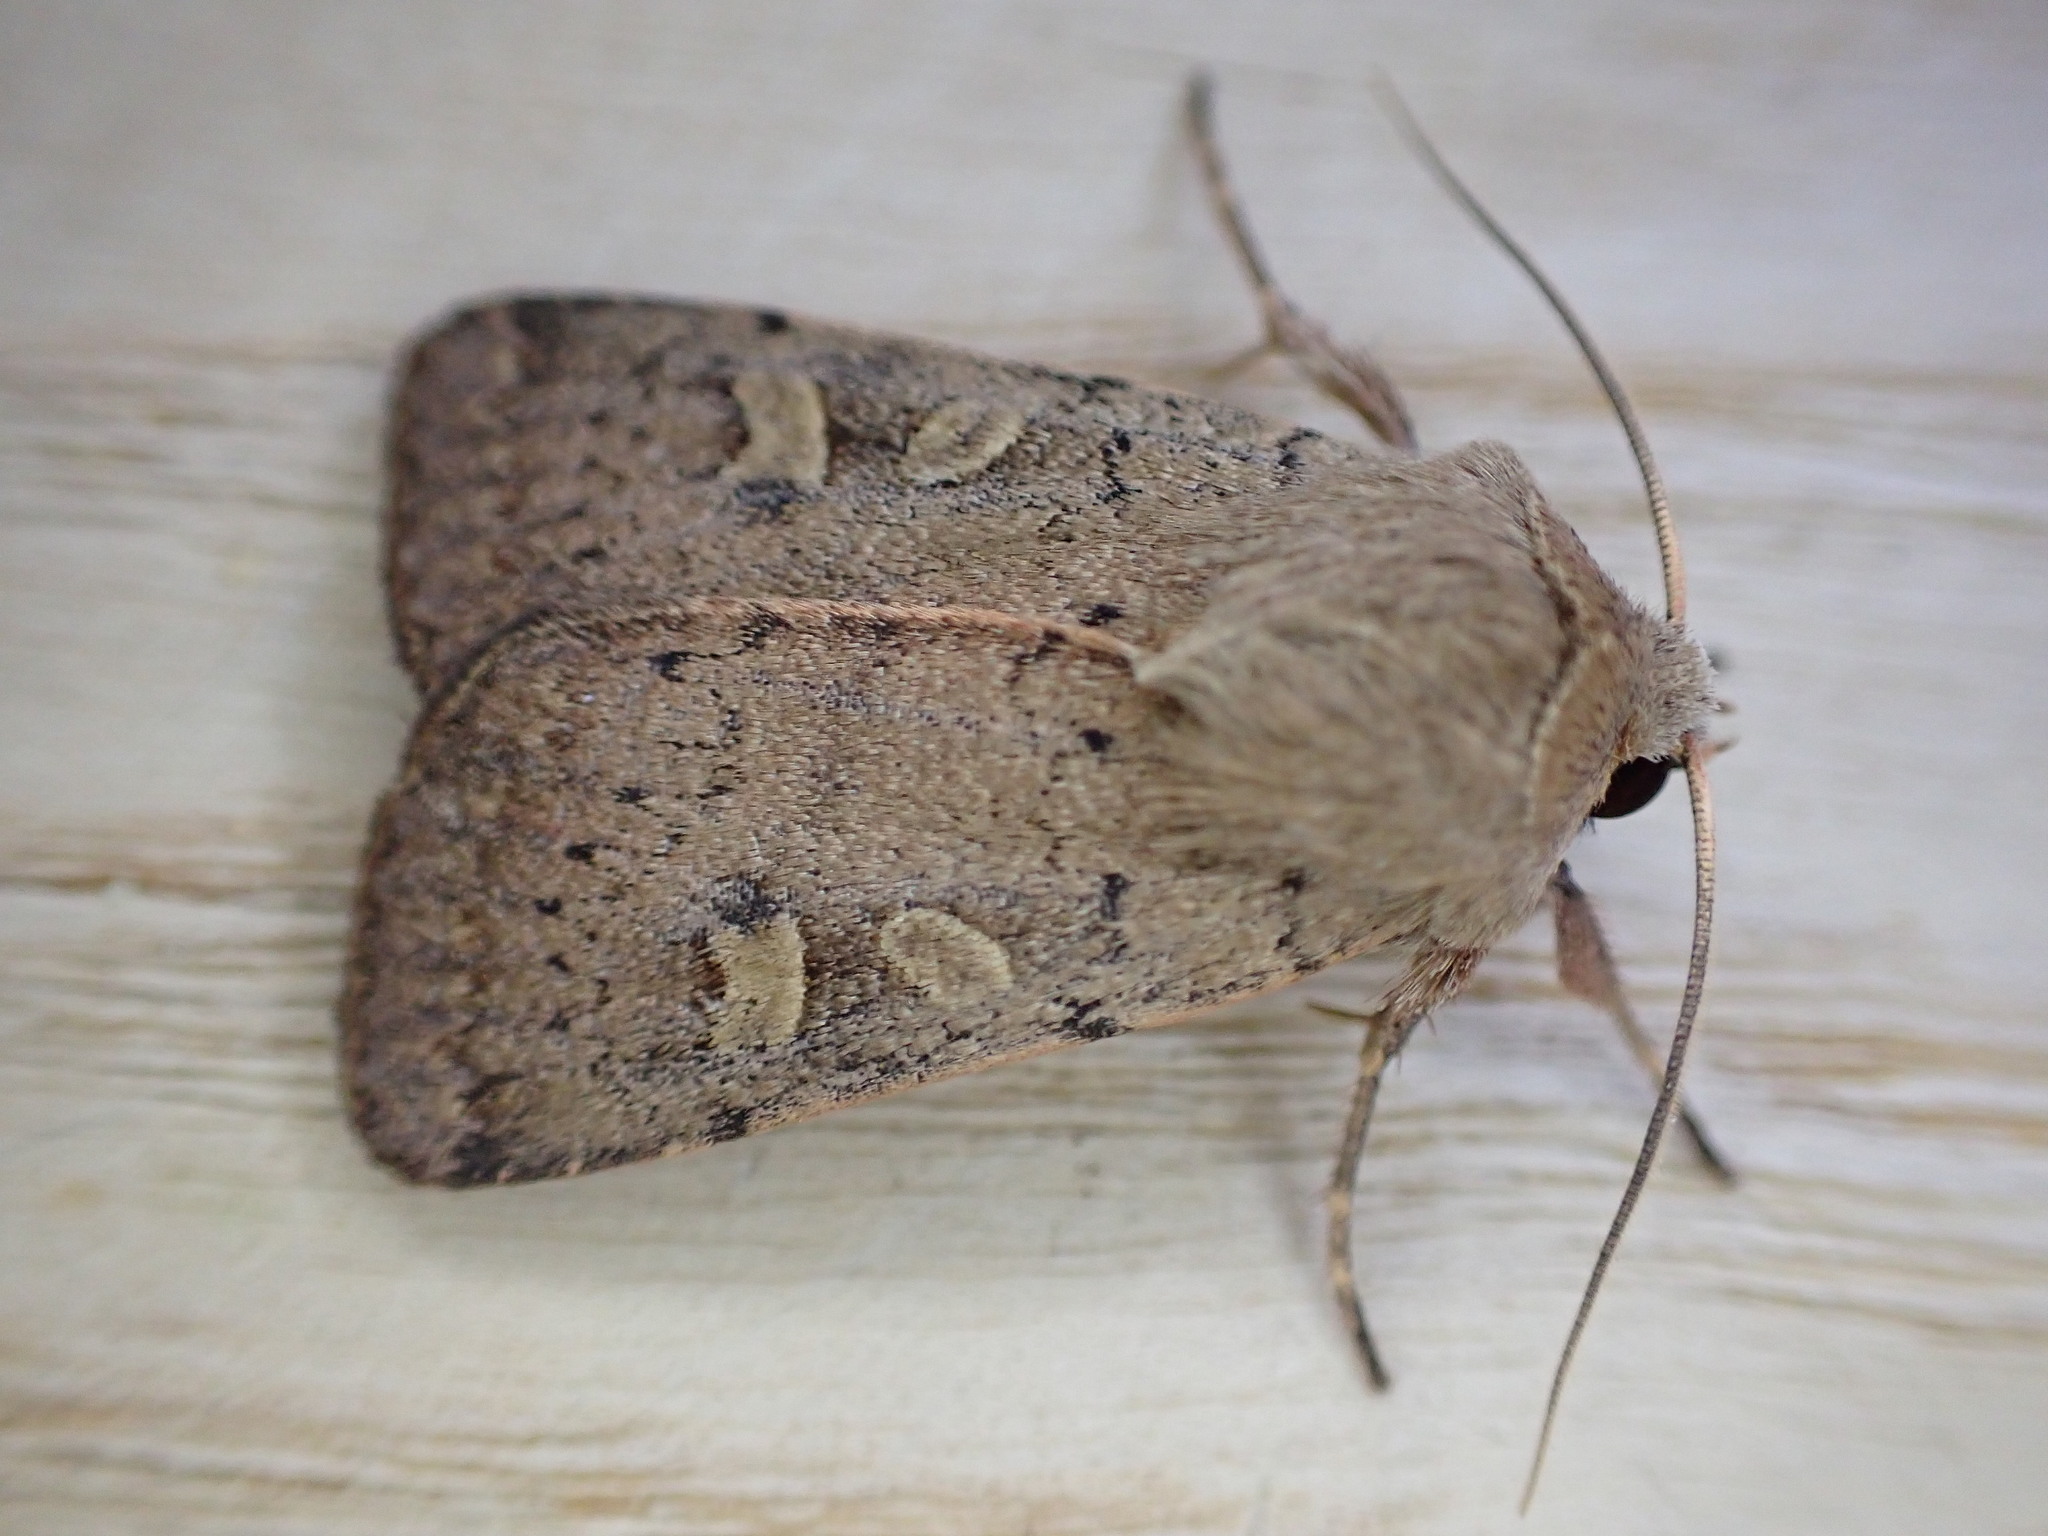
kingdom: Animalia
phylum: Arthropoda
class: Insecta
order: Lepidoptera
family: Noctuidae
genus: Xestia
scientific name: Xestia xanthographa
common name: Square-spot rustic
